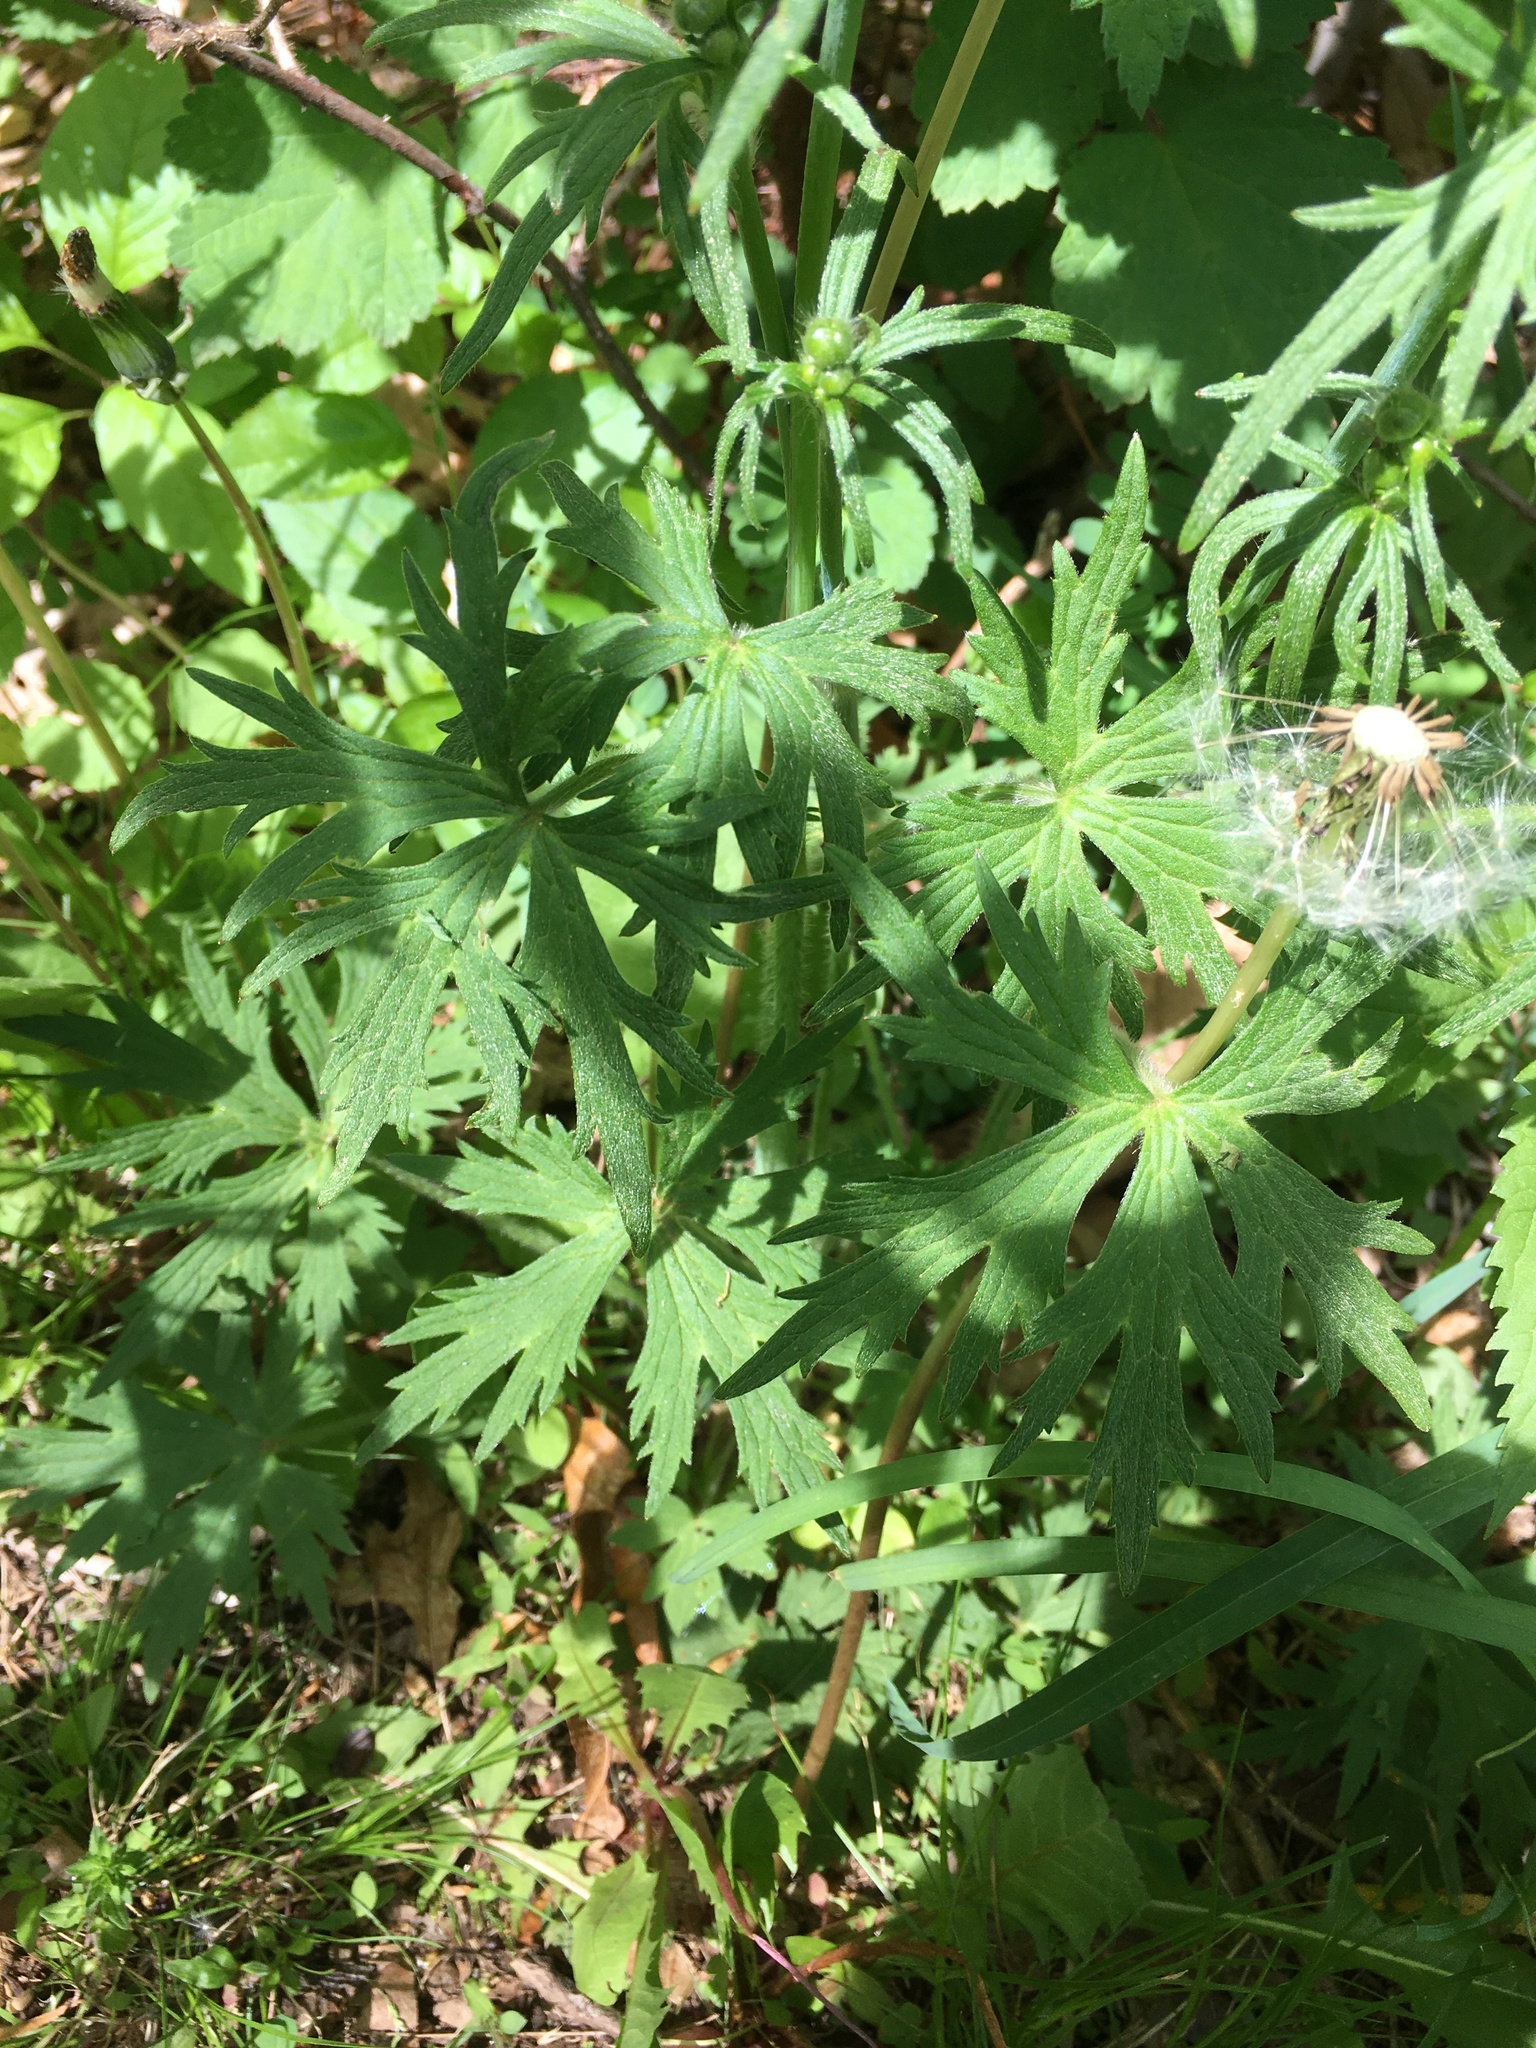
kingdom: Plantae
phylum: Tracheophyta
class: Magnoliopsida
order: Geraniales
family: Geraniaceae
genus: Geranium
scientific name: Geranium maculatum
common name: Spotted geranium
